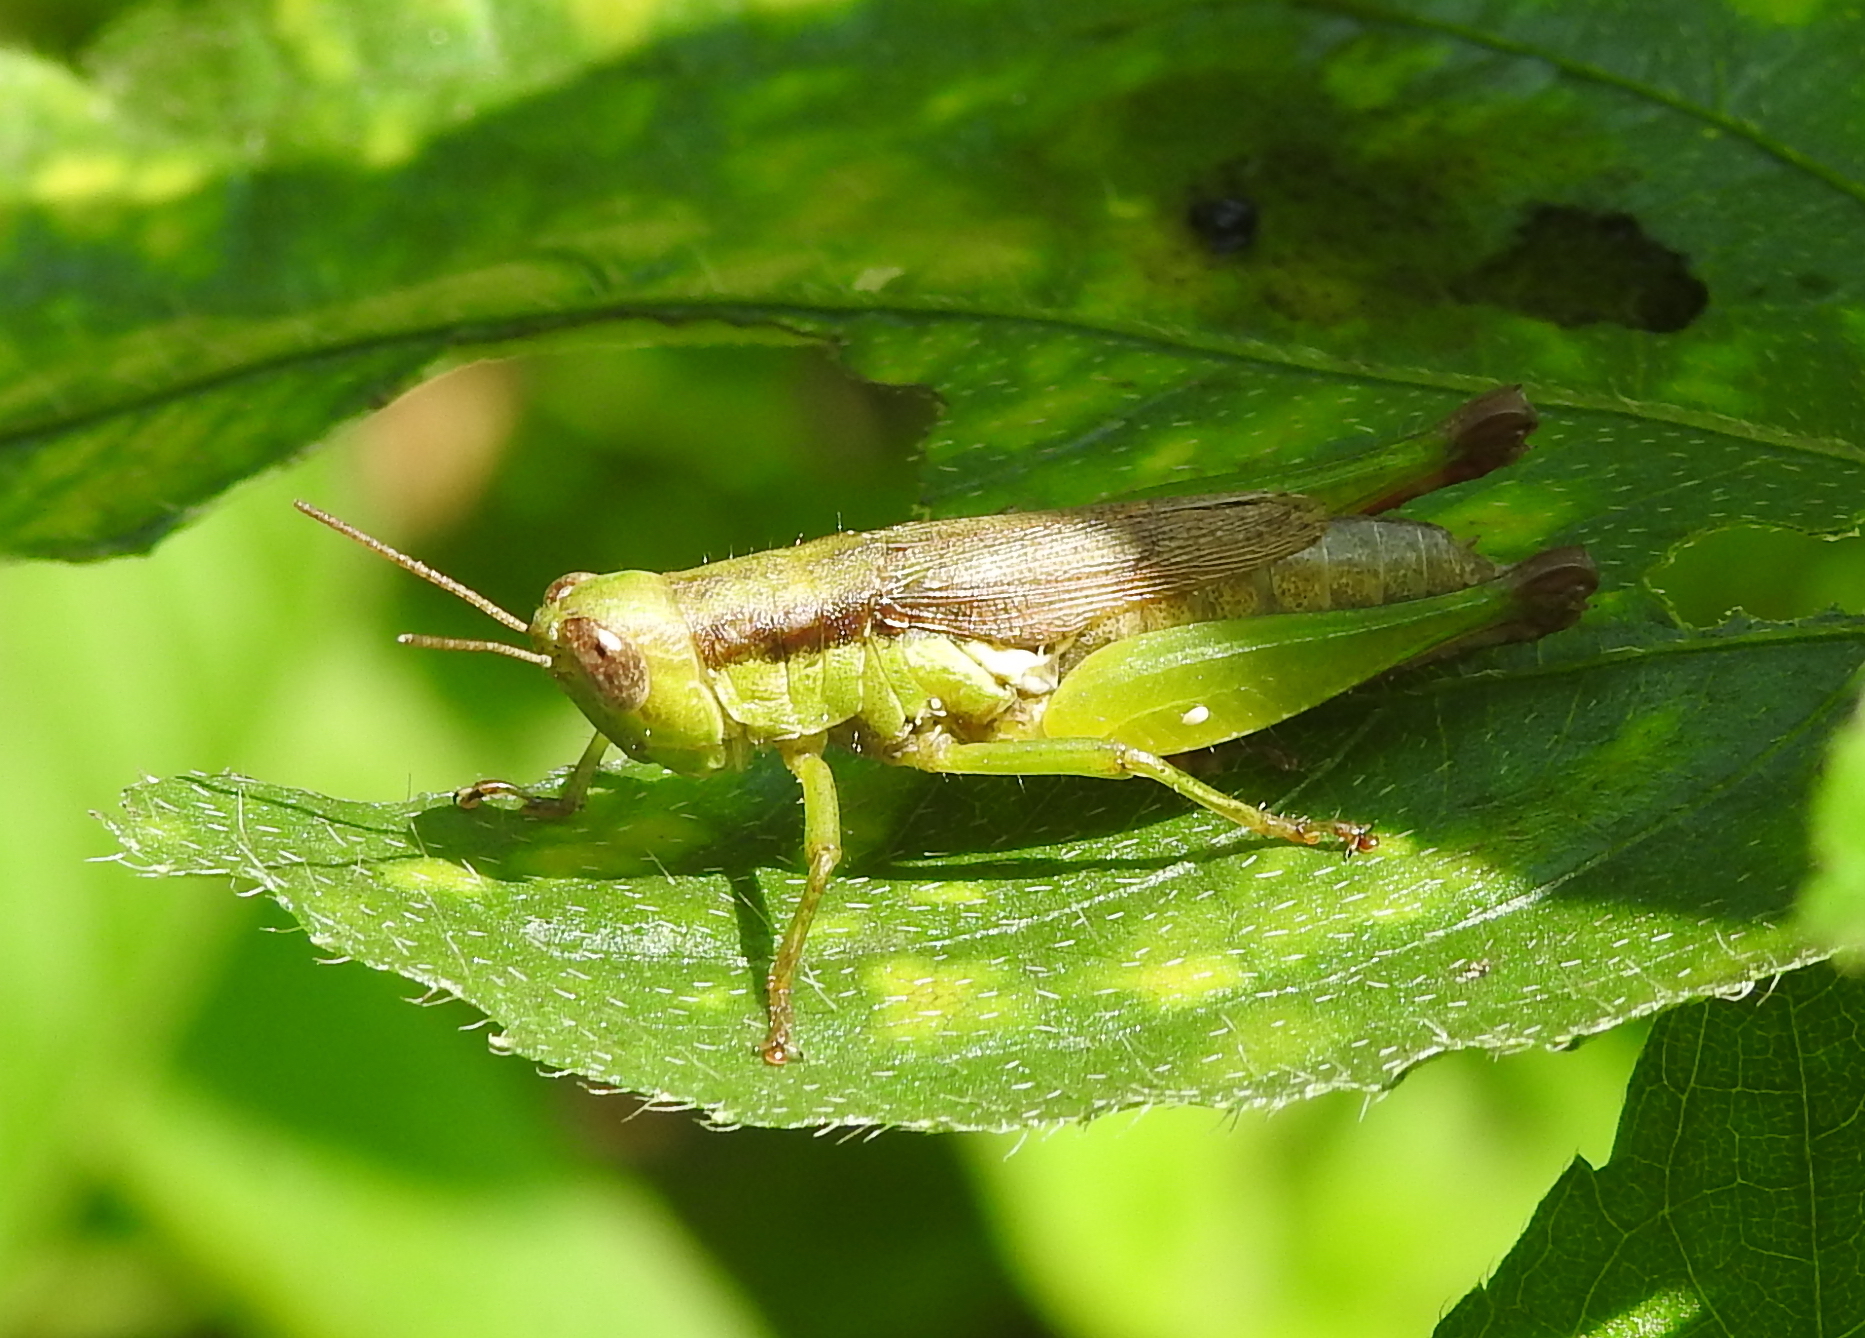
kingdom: Animalia
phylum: Arthropoda
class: Insecta
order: Orthoptera
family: Acrididae
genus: Pseudoxya
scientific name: Pseudoxya diminuta
